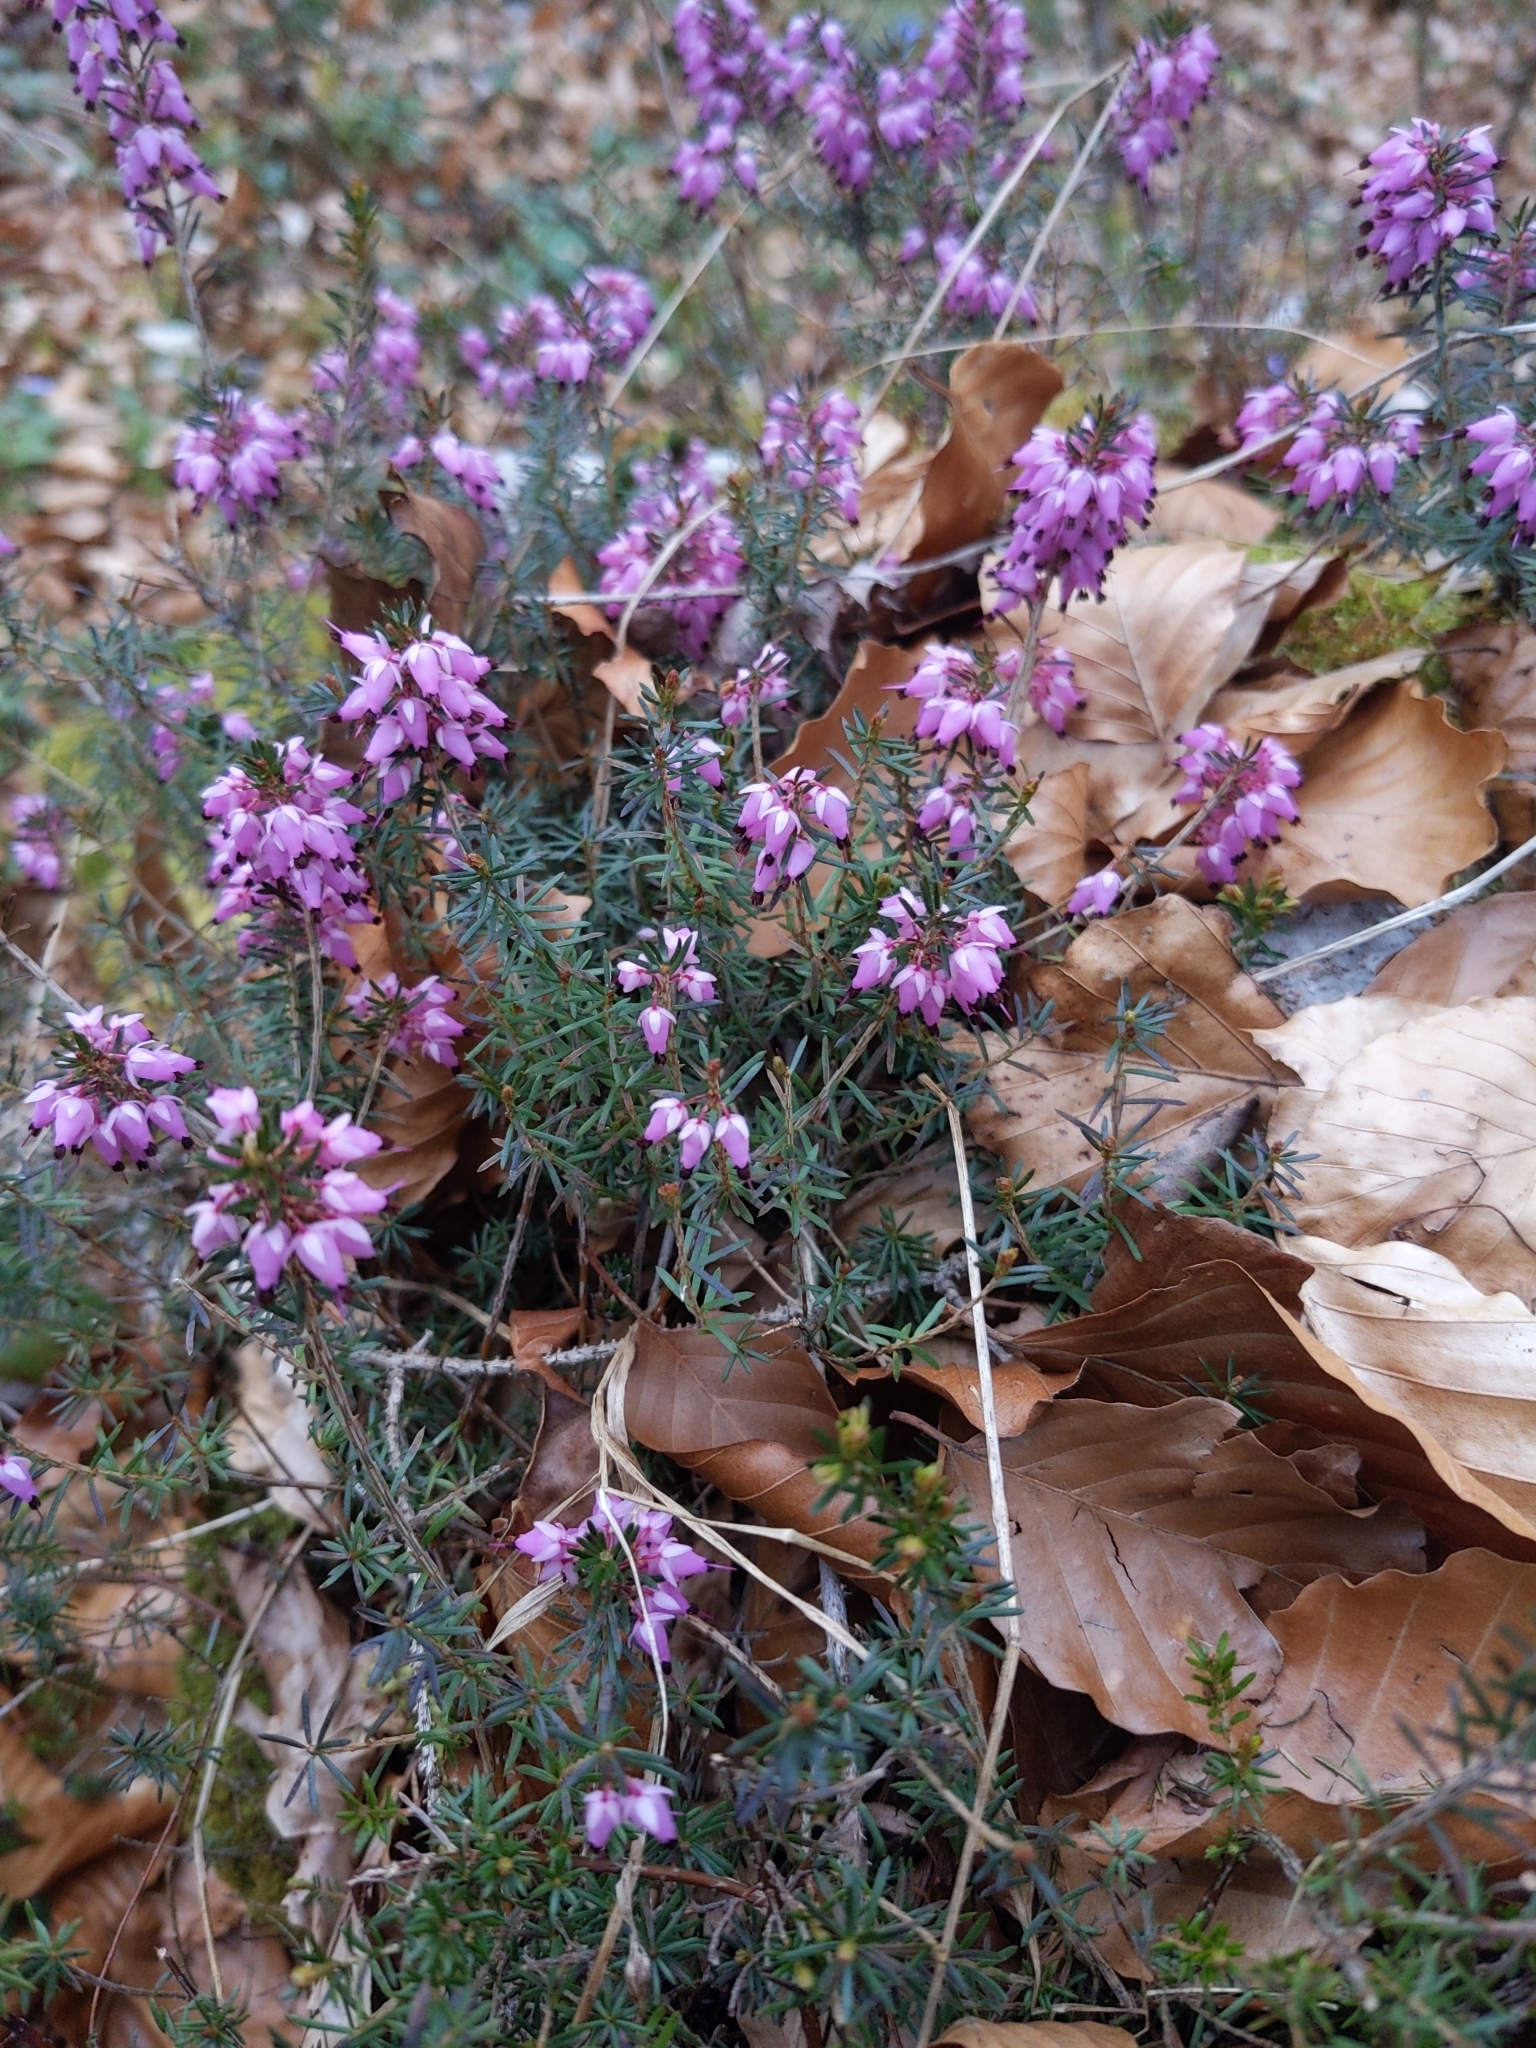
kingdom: Plantae
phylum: Tracheophyta
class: Magnoliopsida
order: Ericales
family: Ericaceae
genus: Erica
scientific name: Erica carnea
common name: Winter heath
